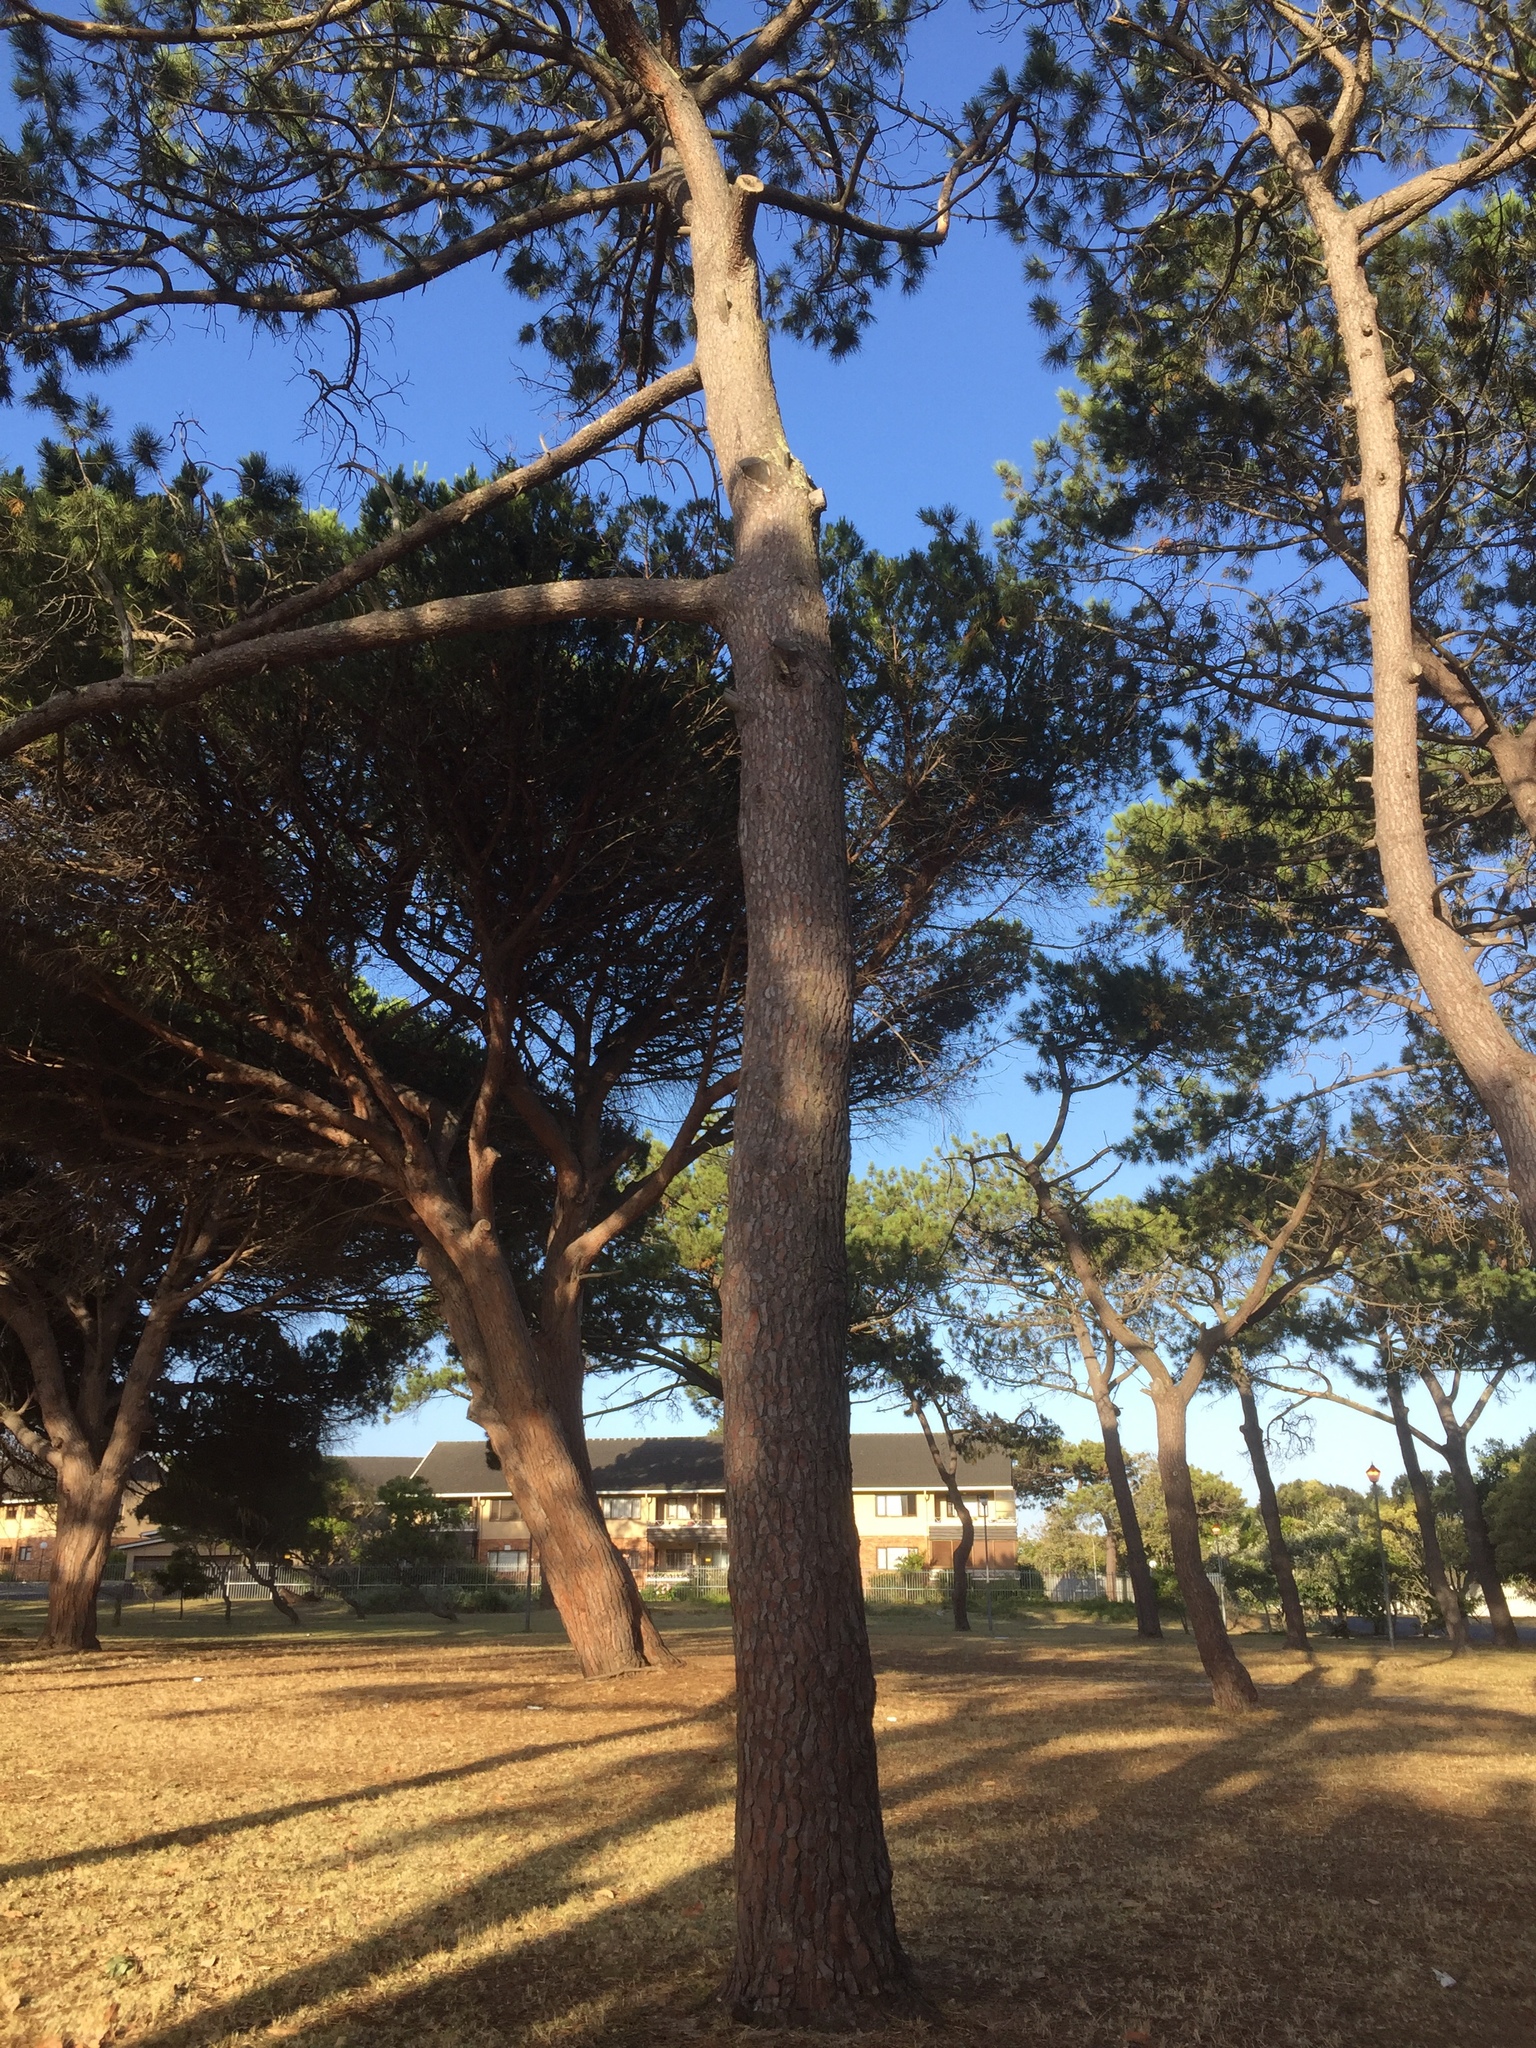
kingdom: Plantae
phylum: Tracheophyta
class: Pinopsida
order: Pinales
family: Pinaceae
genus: Pinus
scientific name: Pinus pinaster
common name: Maritime pine
